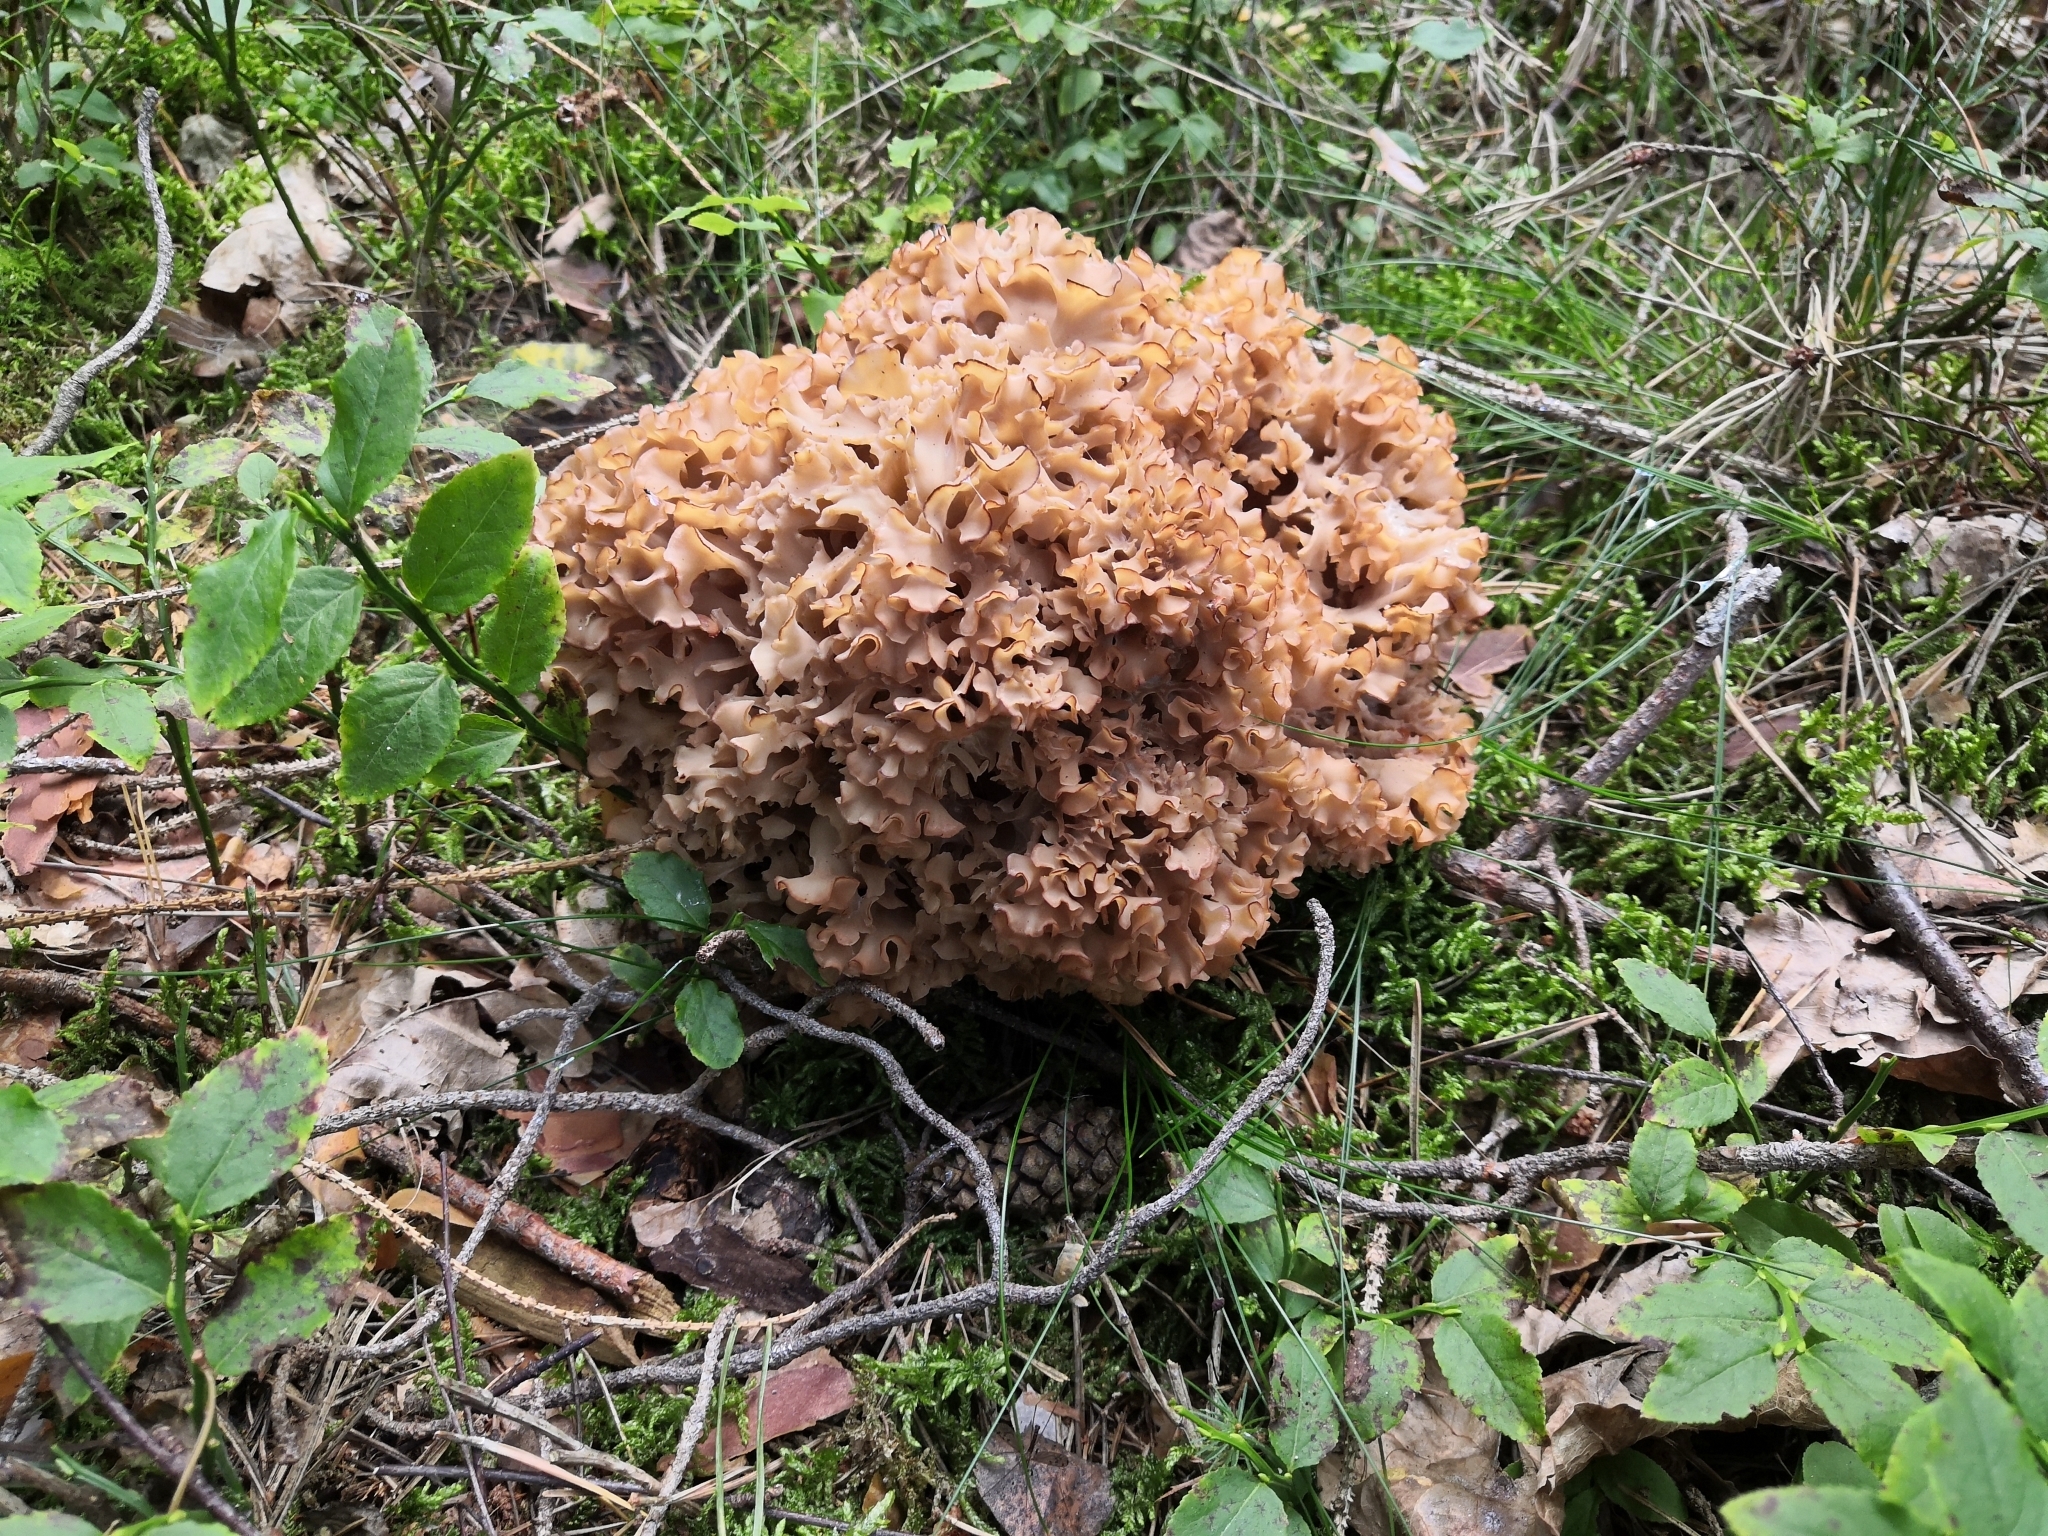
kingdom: Fungi
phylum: Basidiomycota
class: Agaricomycetes
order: Polyporales
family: Sparassidaceae
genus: Sparassis
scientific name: Sparassis crispa
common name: Brain fungus
